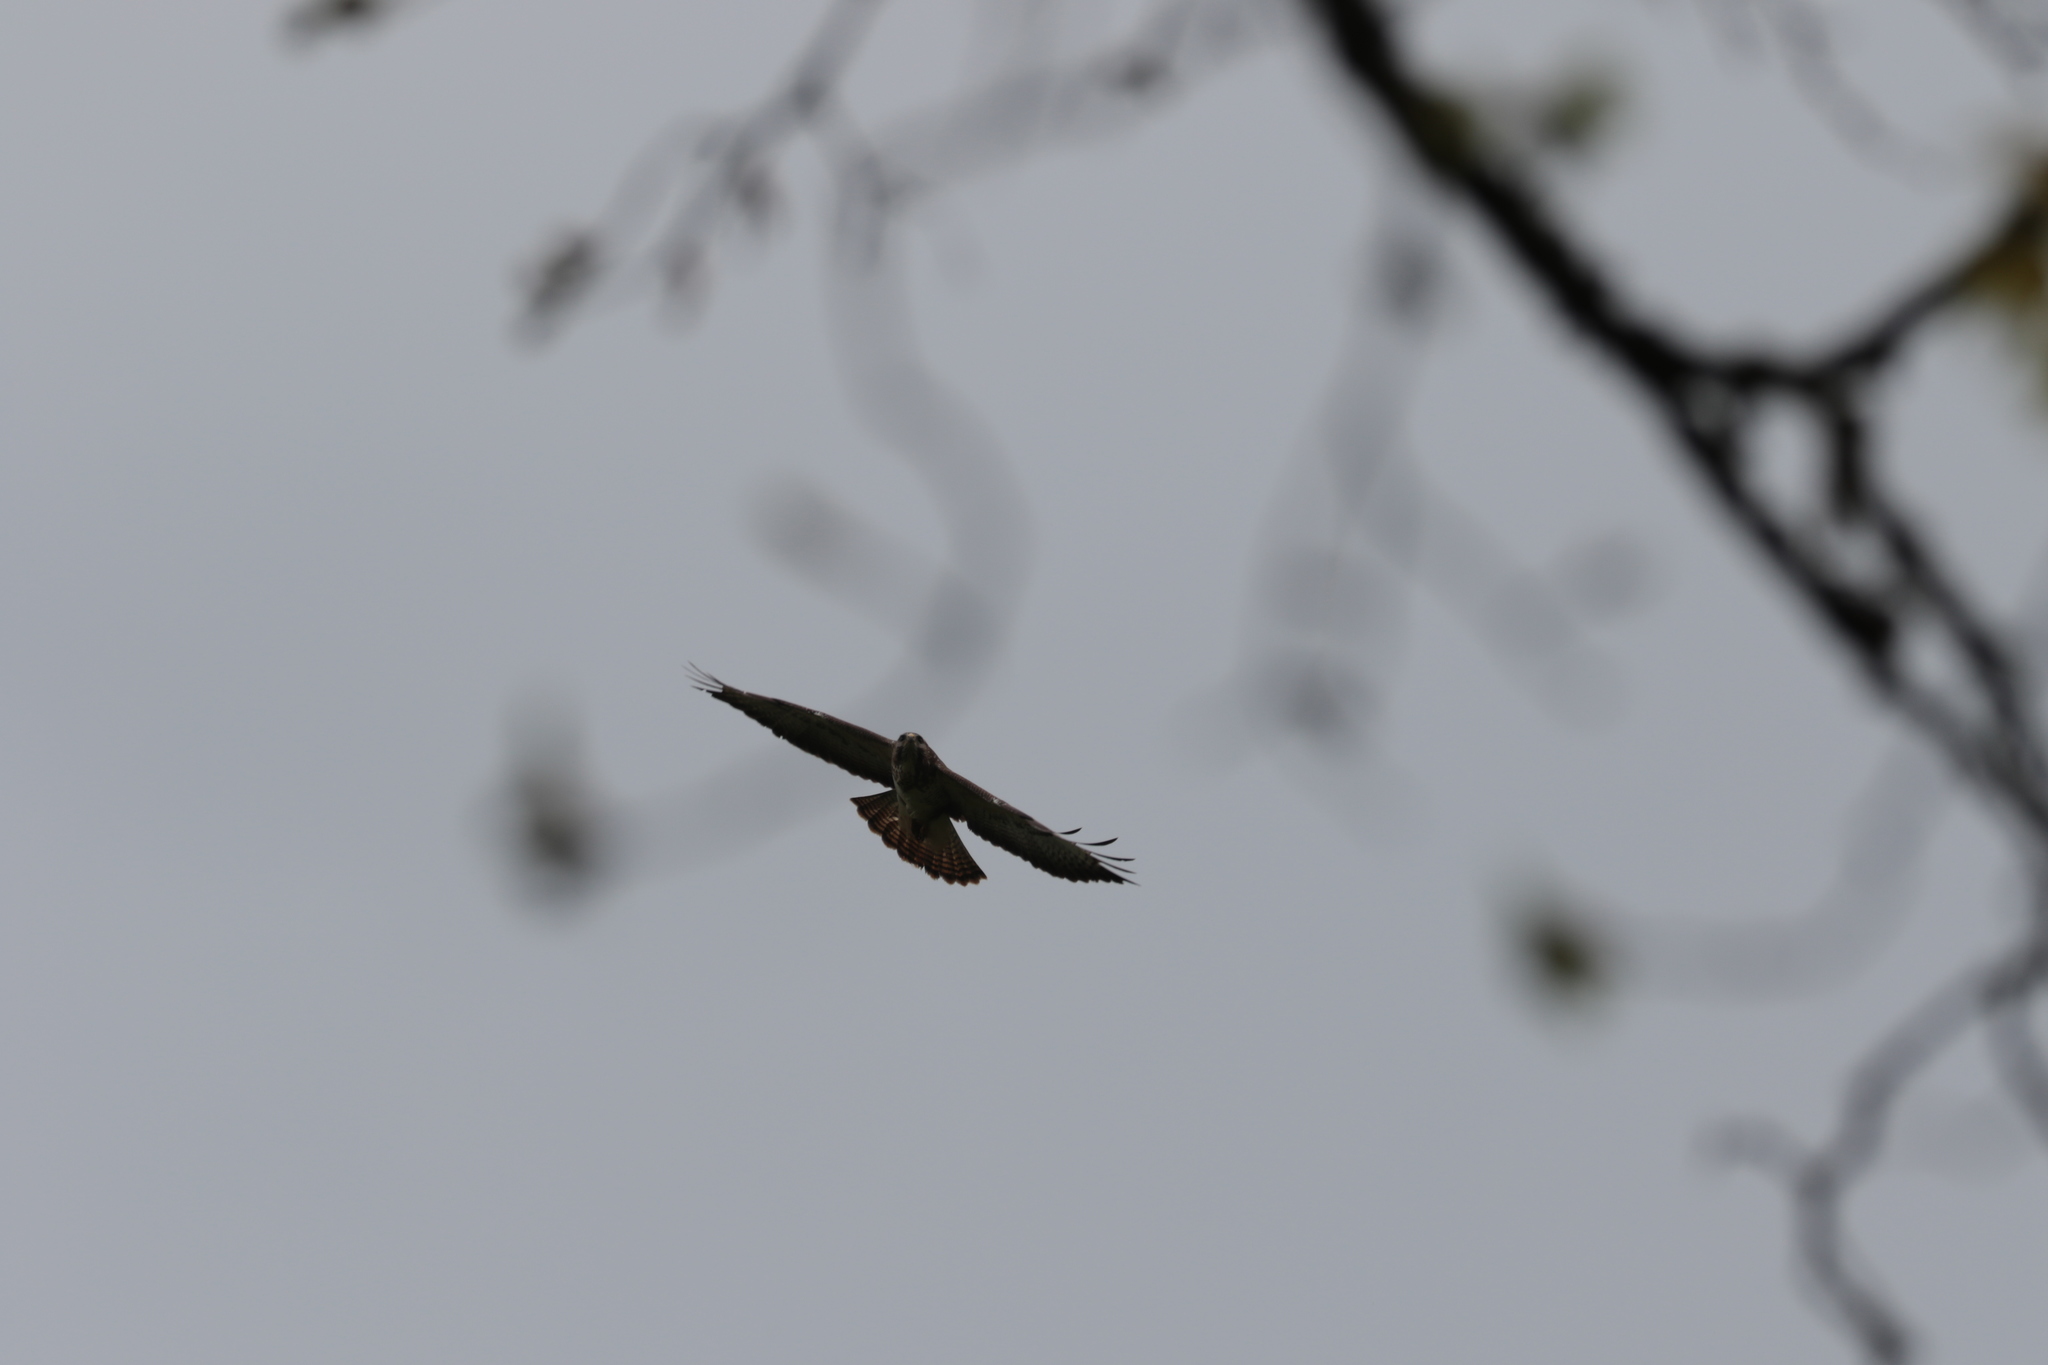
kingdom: Animalia
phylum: Chordata
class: Aves
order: Accipitriformes
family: Accipitridae
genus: Buteo
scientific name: Buteo buteo
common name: Common buzzard
